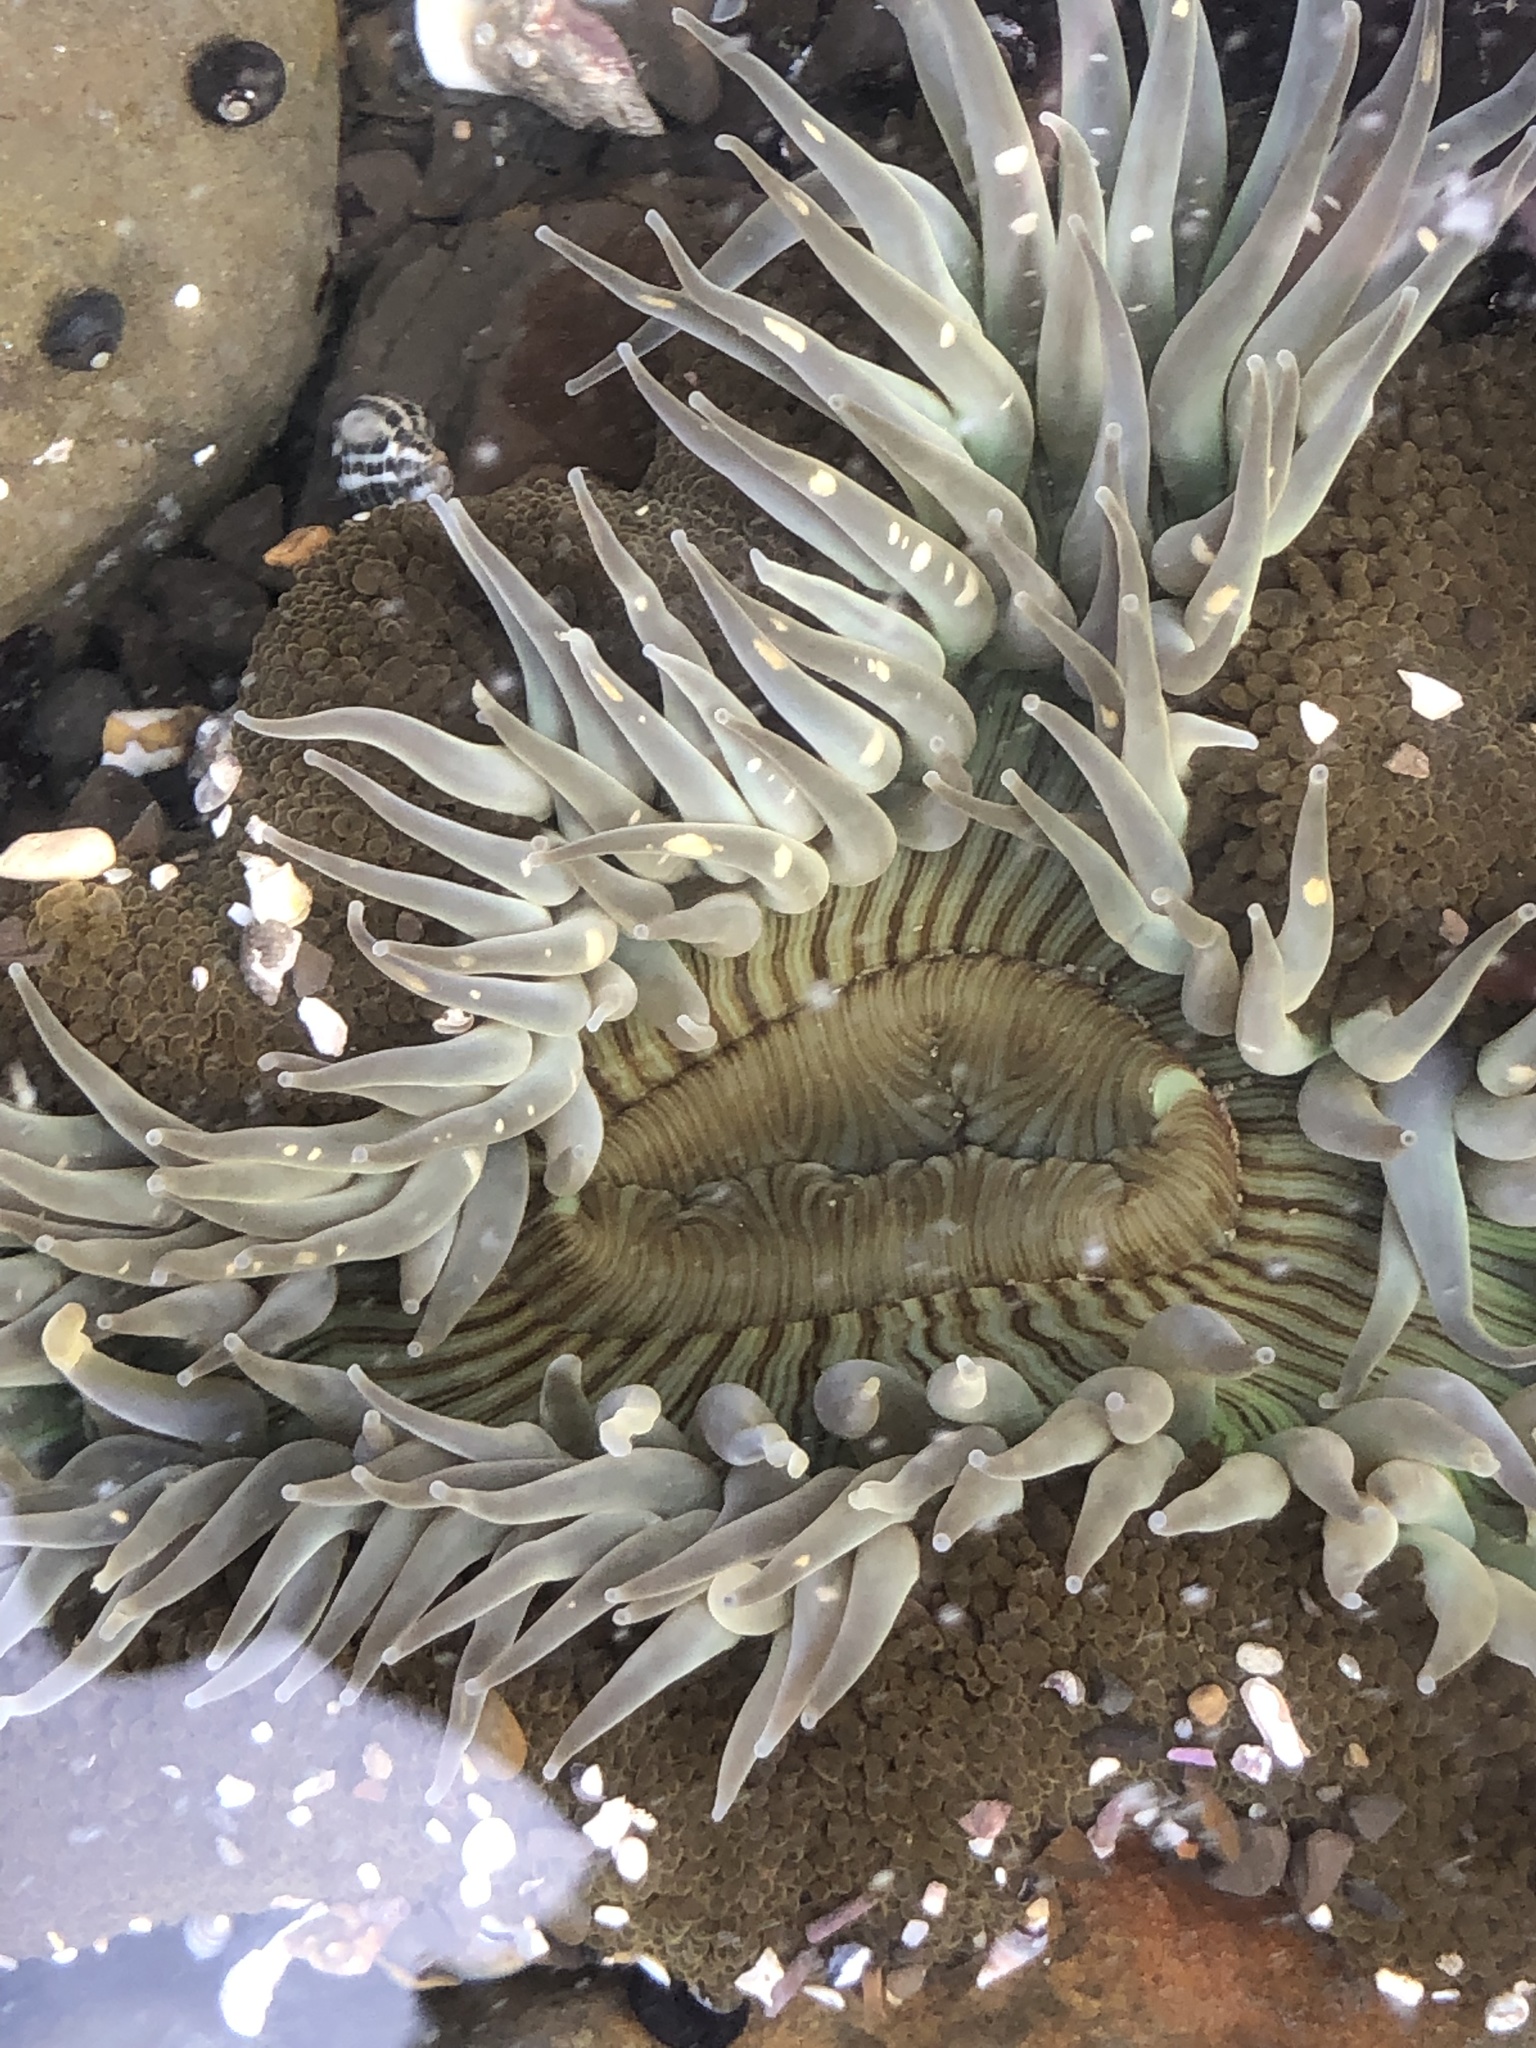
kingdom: Animalia
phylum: Cnidaria
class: Anthozoa
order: Actiniaria
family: Actiniidae
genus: Anthopleura
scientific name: Anthopleura sola
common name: Sun anemone
